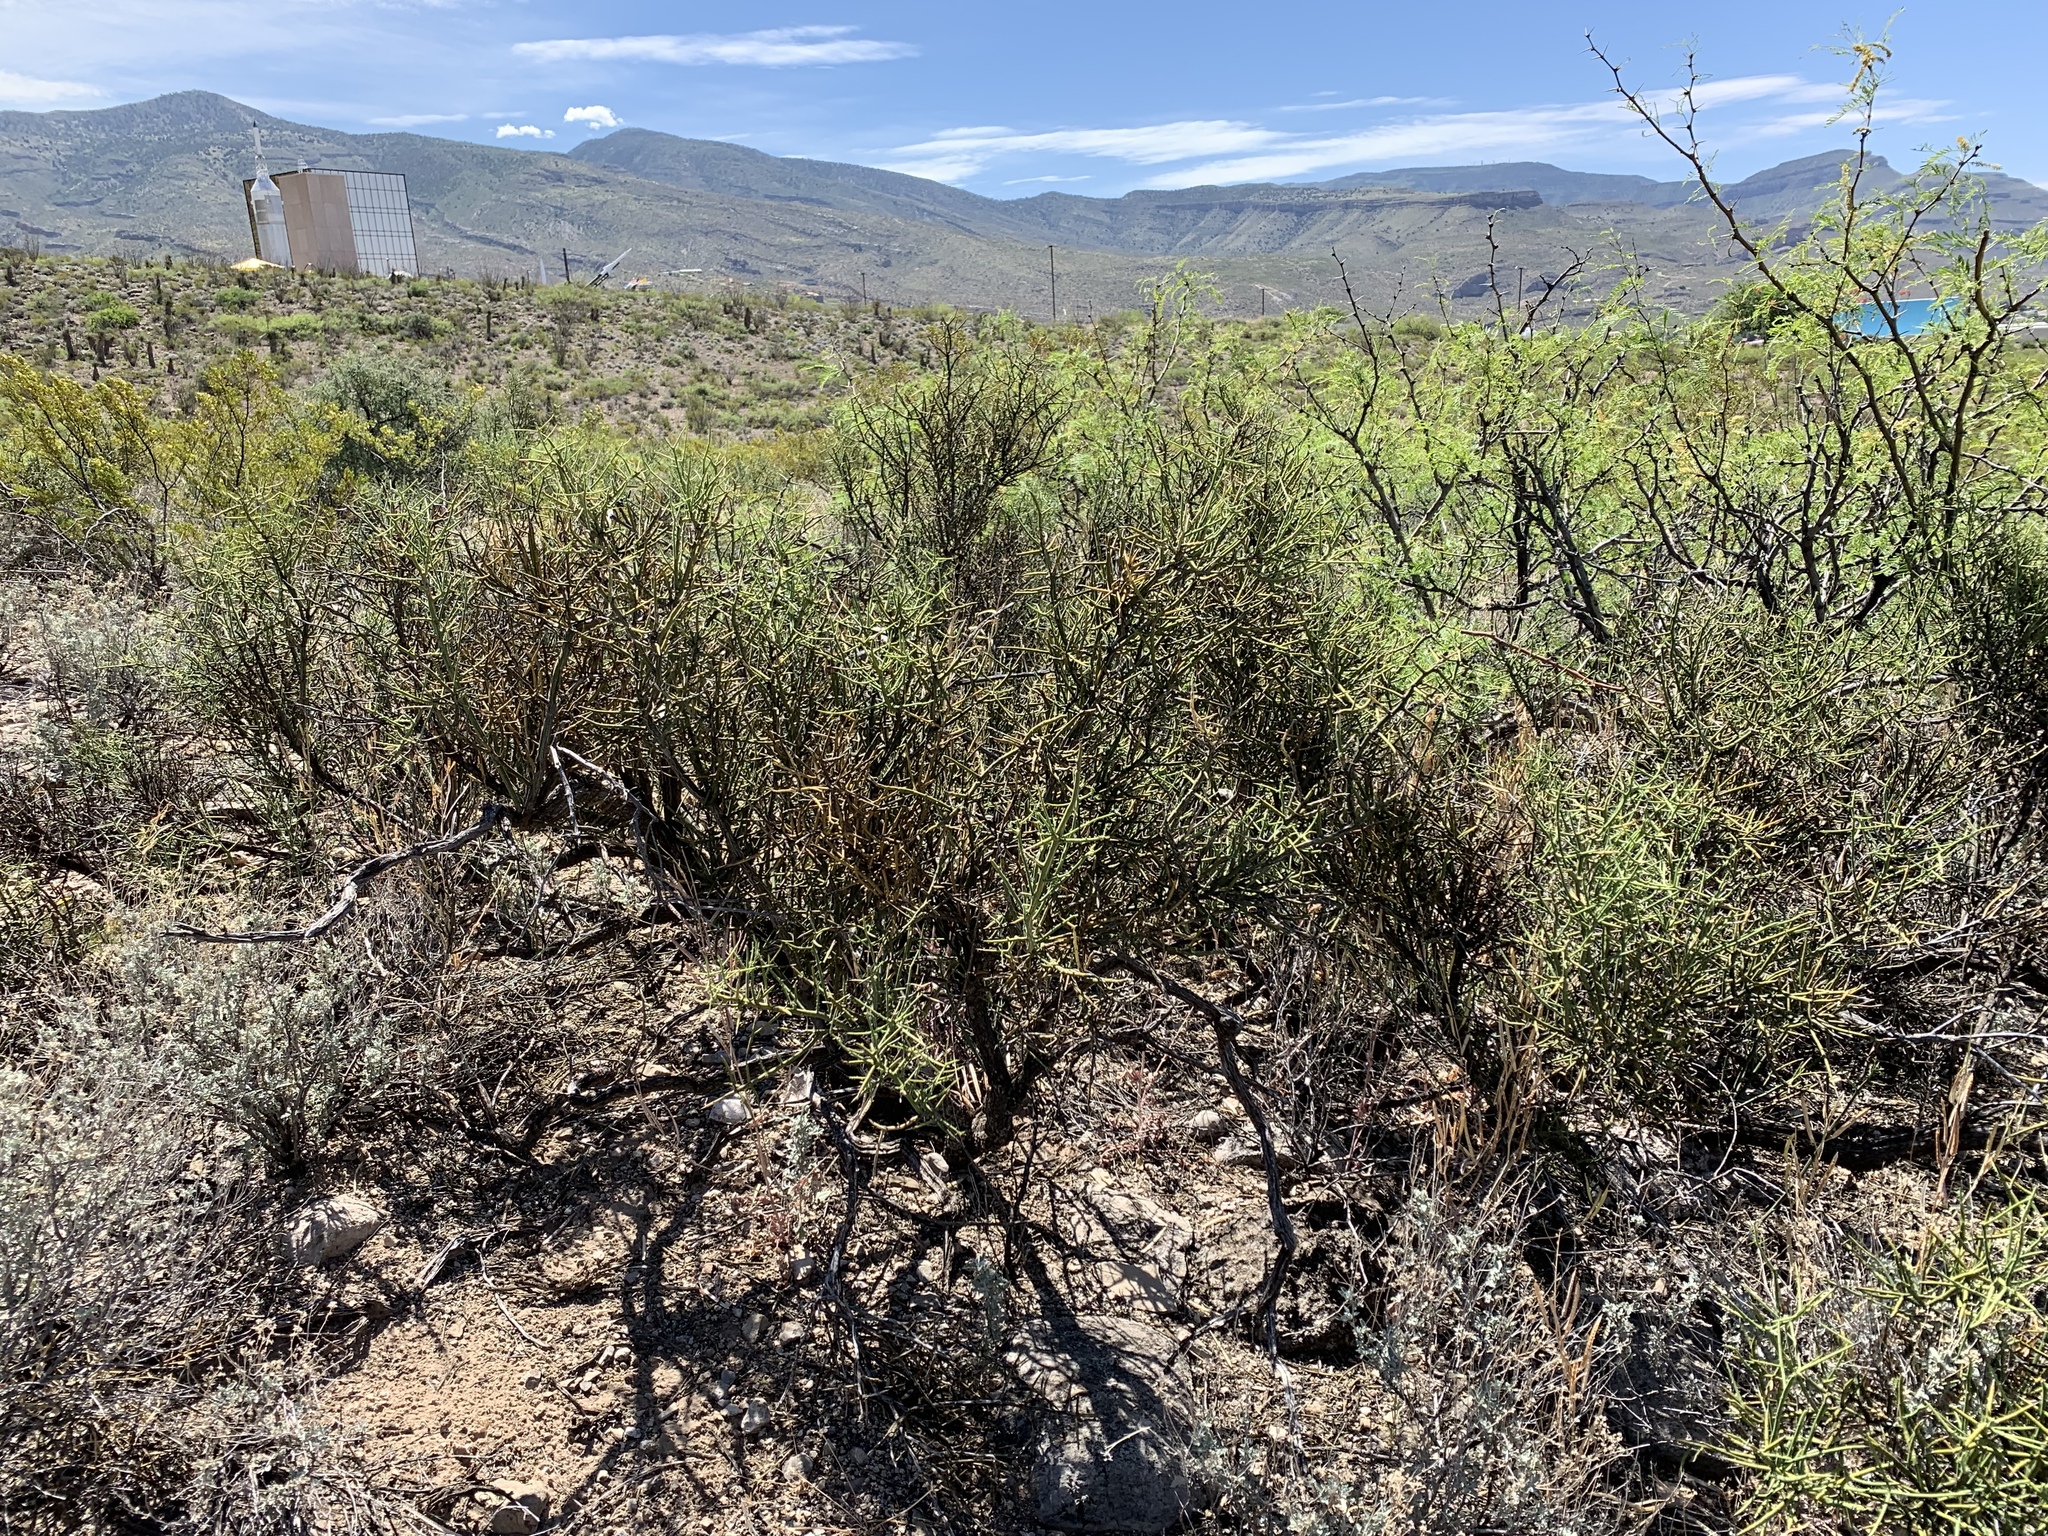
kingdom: Plantae
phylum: Tracheophyta
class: Magnoliopsida
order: Brassicales
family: Koeberliniaceae
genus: Koeberlinia
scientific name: Koeberlinia spinosa
